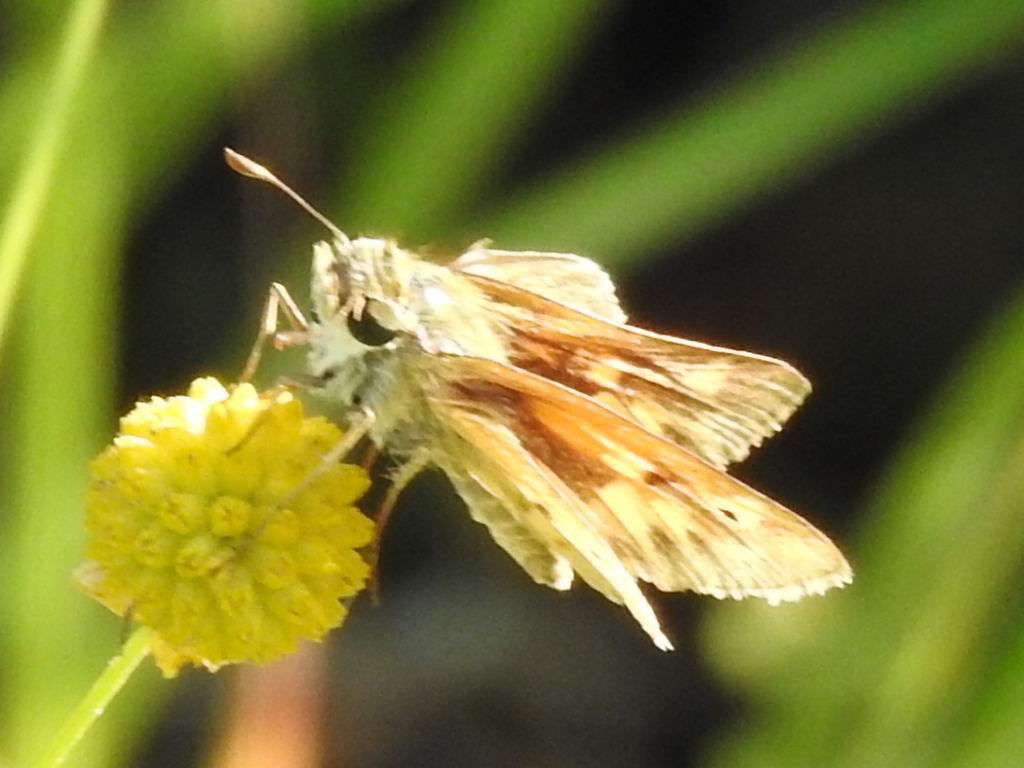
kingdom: Animalia
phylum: Arthropoda
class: Insecta
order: Lepidoptera
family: Hesperiidae
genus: Hylephila
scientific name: Hylephila phyleus
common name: Fiery skipper
